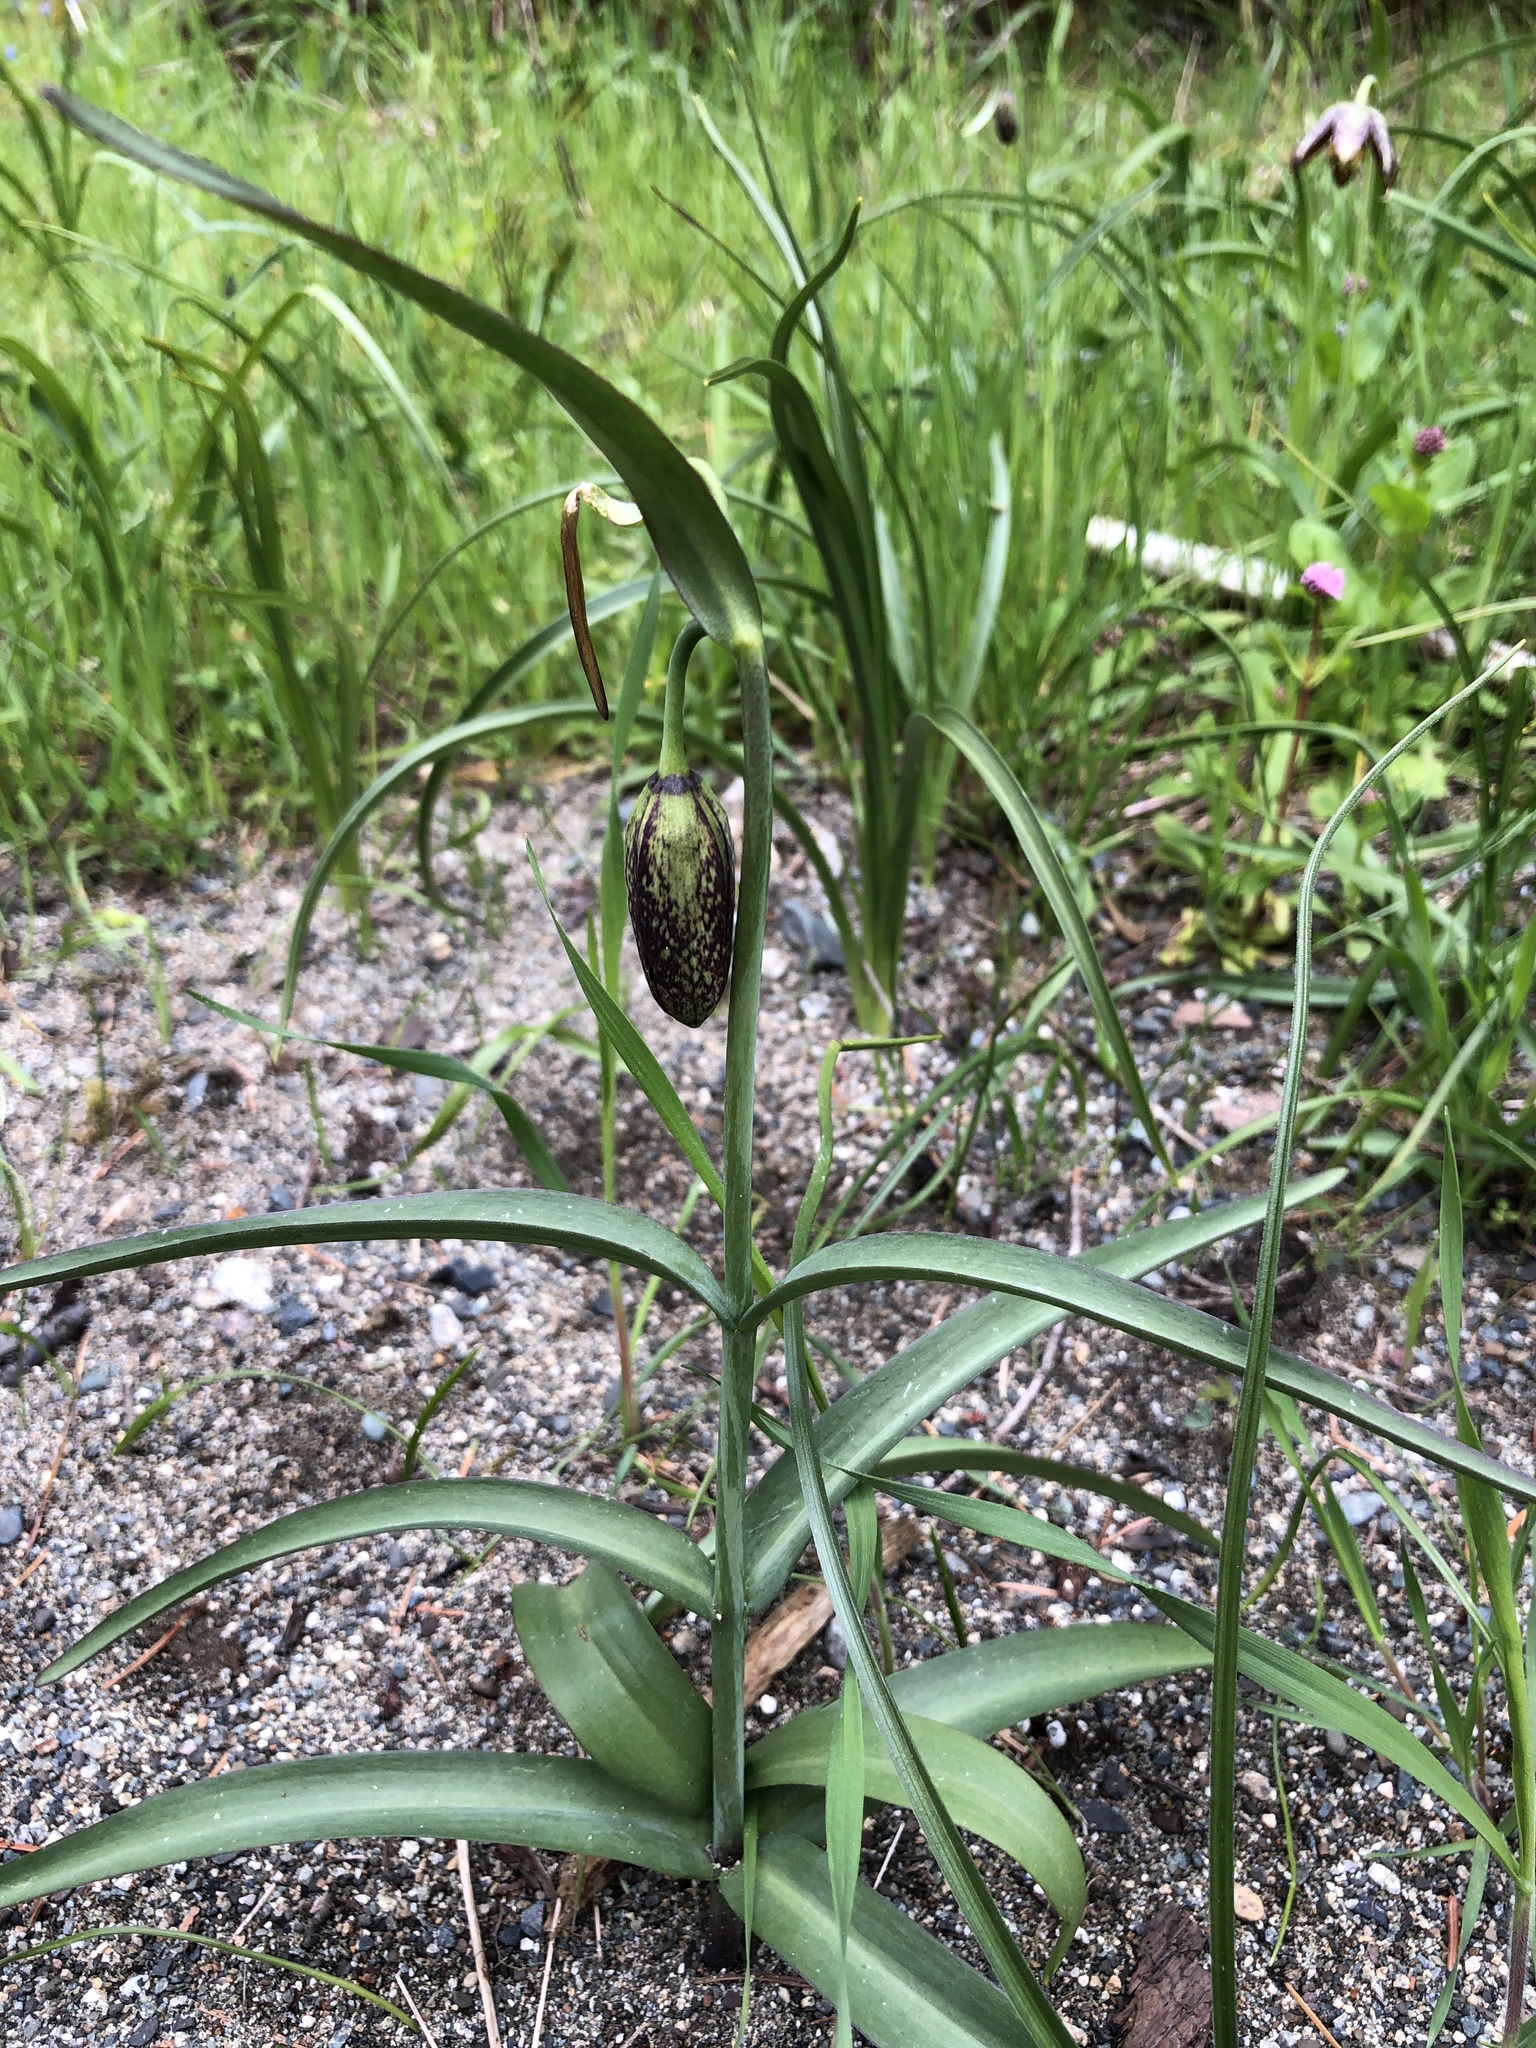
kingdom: Plantae
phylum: Tracheophyta
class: Liliopsida
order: Liliales
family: Liliaceae
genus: Fritillaria
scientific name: Fritillaria affinis
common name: Ojai fritillary
